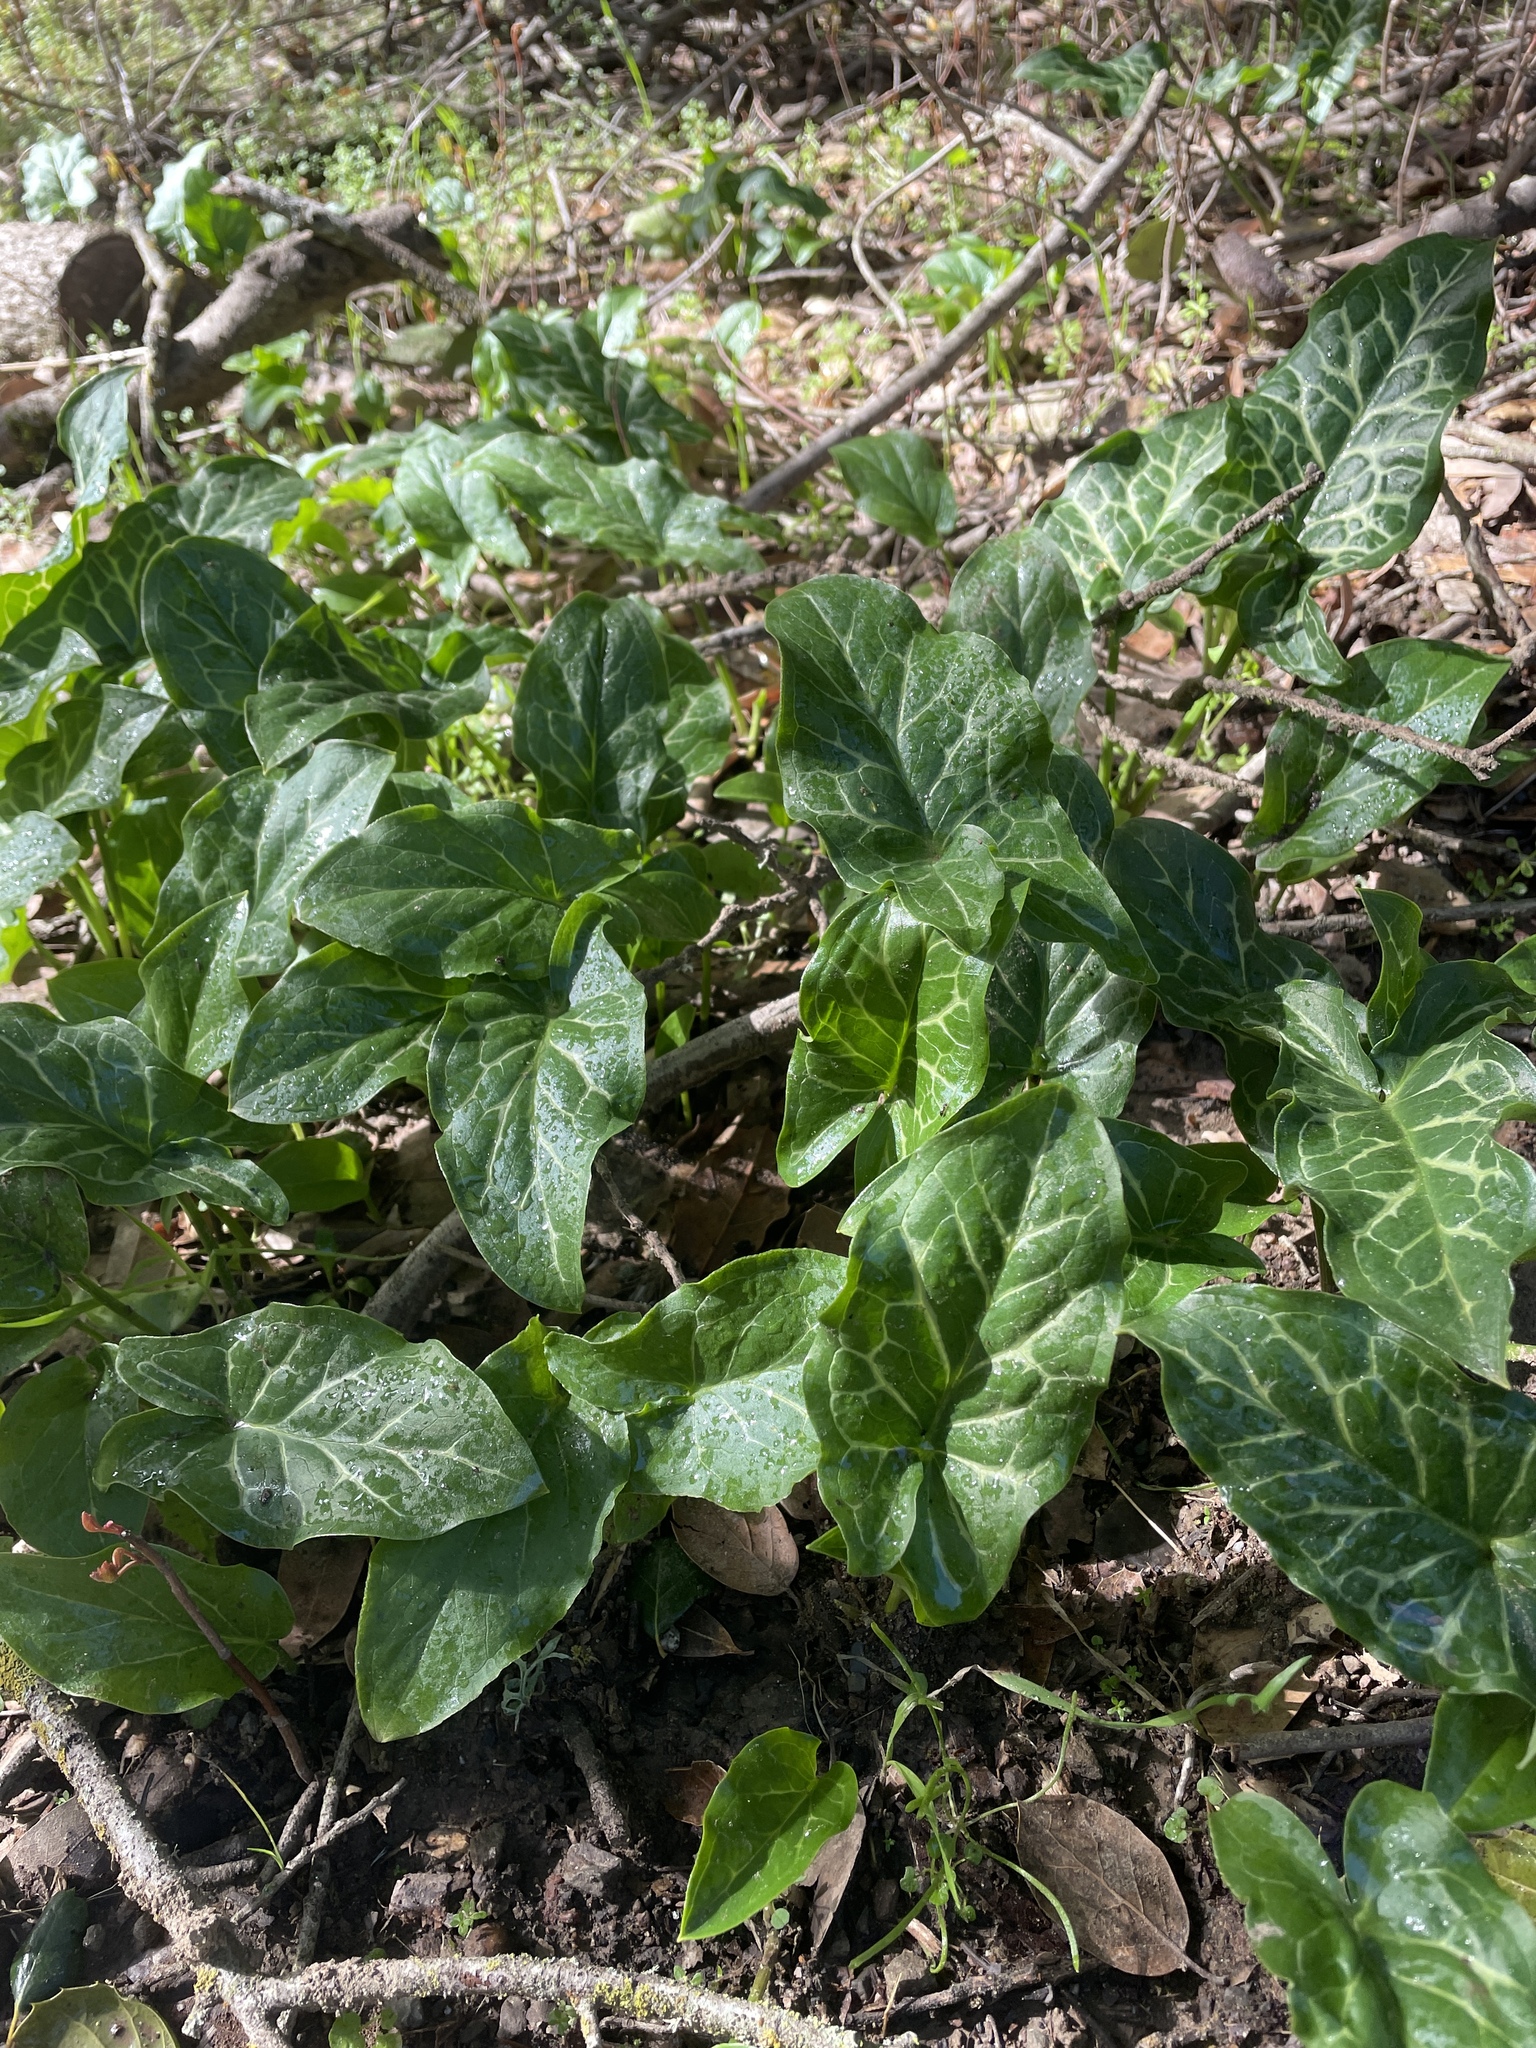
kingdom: Plantae
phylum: Tracheophyta
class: Liliopsida
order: Alismatales
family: Araceae
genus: Arum
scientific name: Arum italicum
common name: Italian lords-and-ladies
